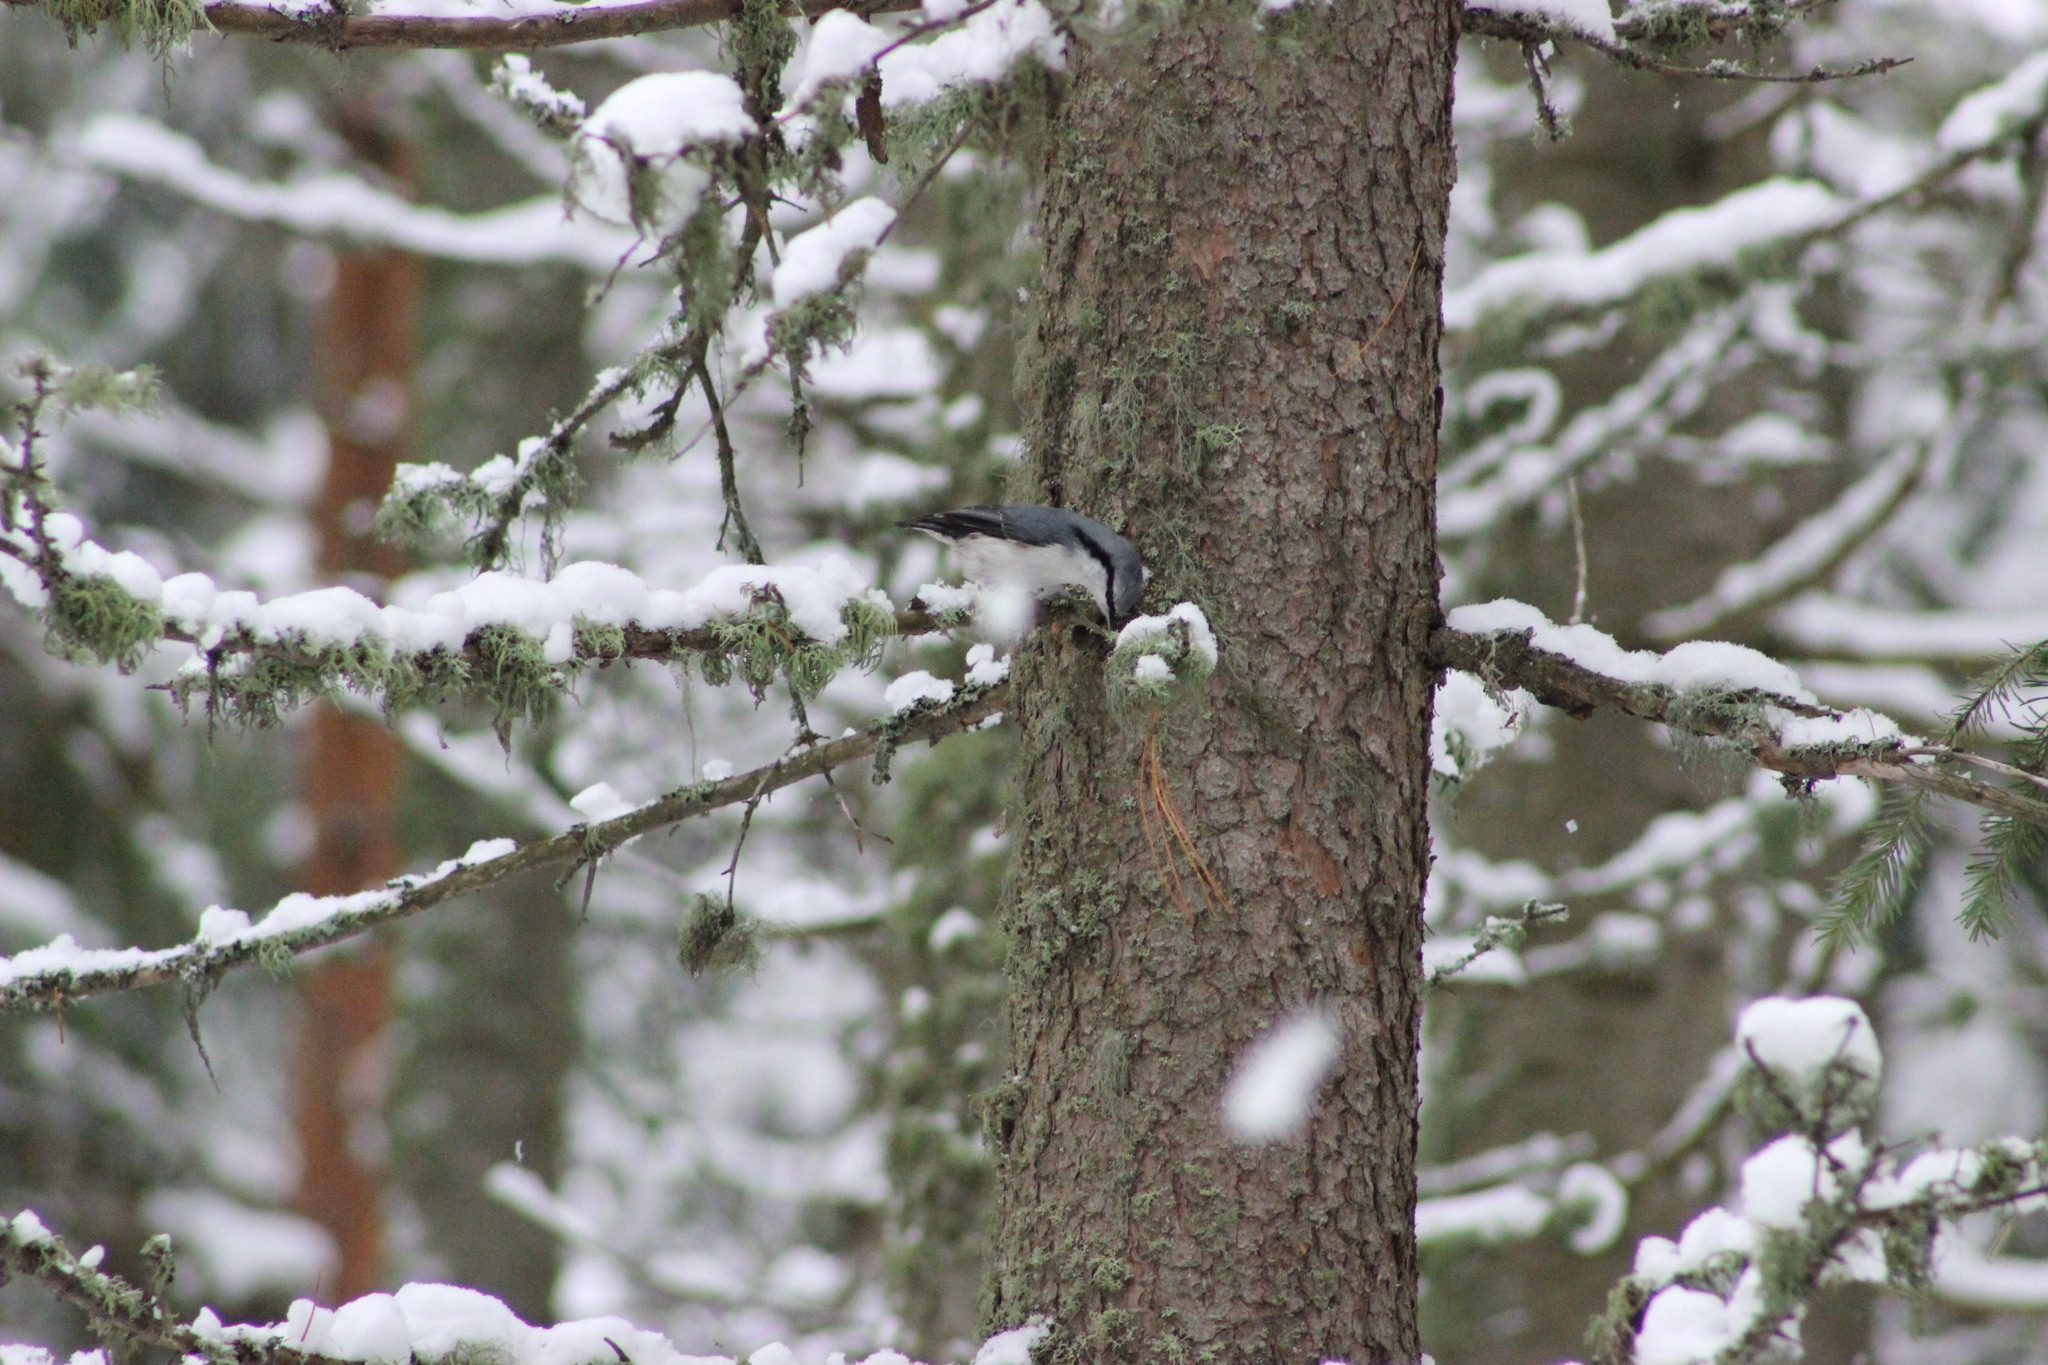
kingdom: Animalia
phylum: Chordata
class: Aves
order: Passeriformes
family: Sittidae
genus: Sitta
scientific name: Sitta europaea
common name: Eurasian nuthatch
